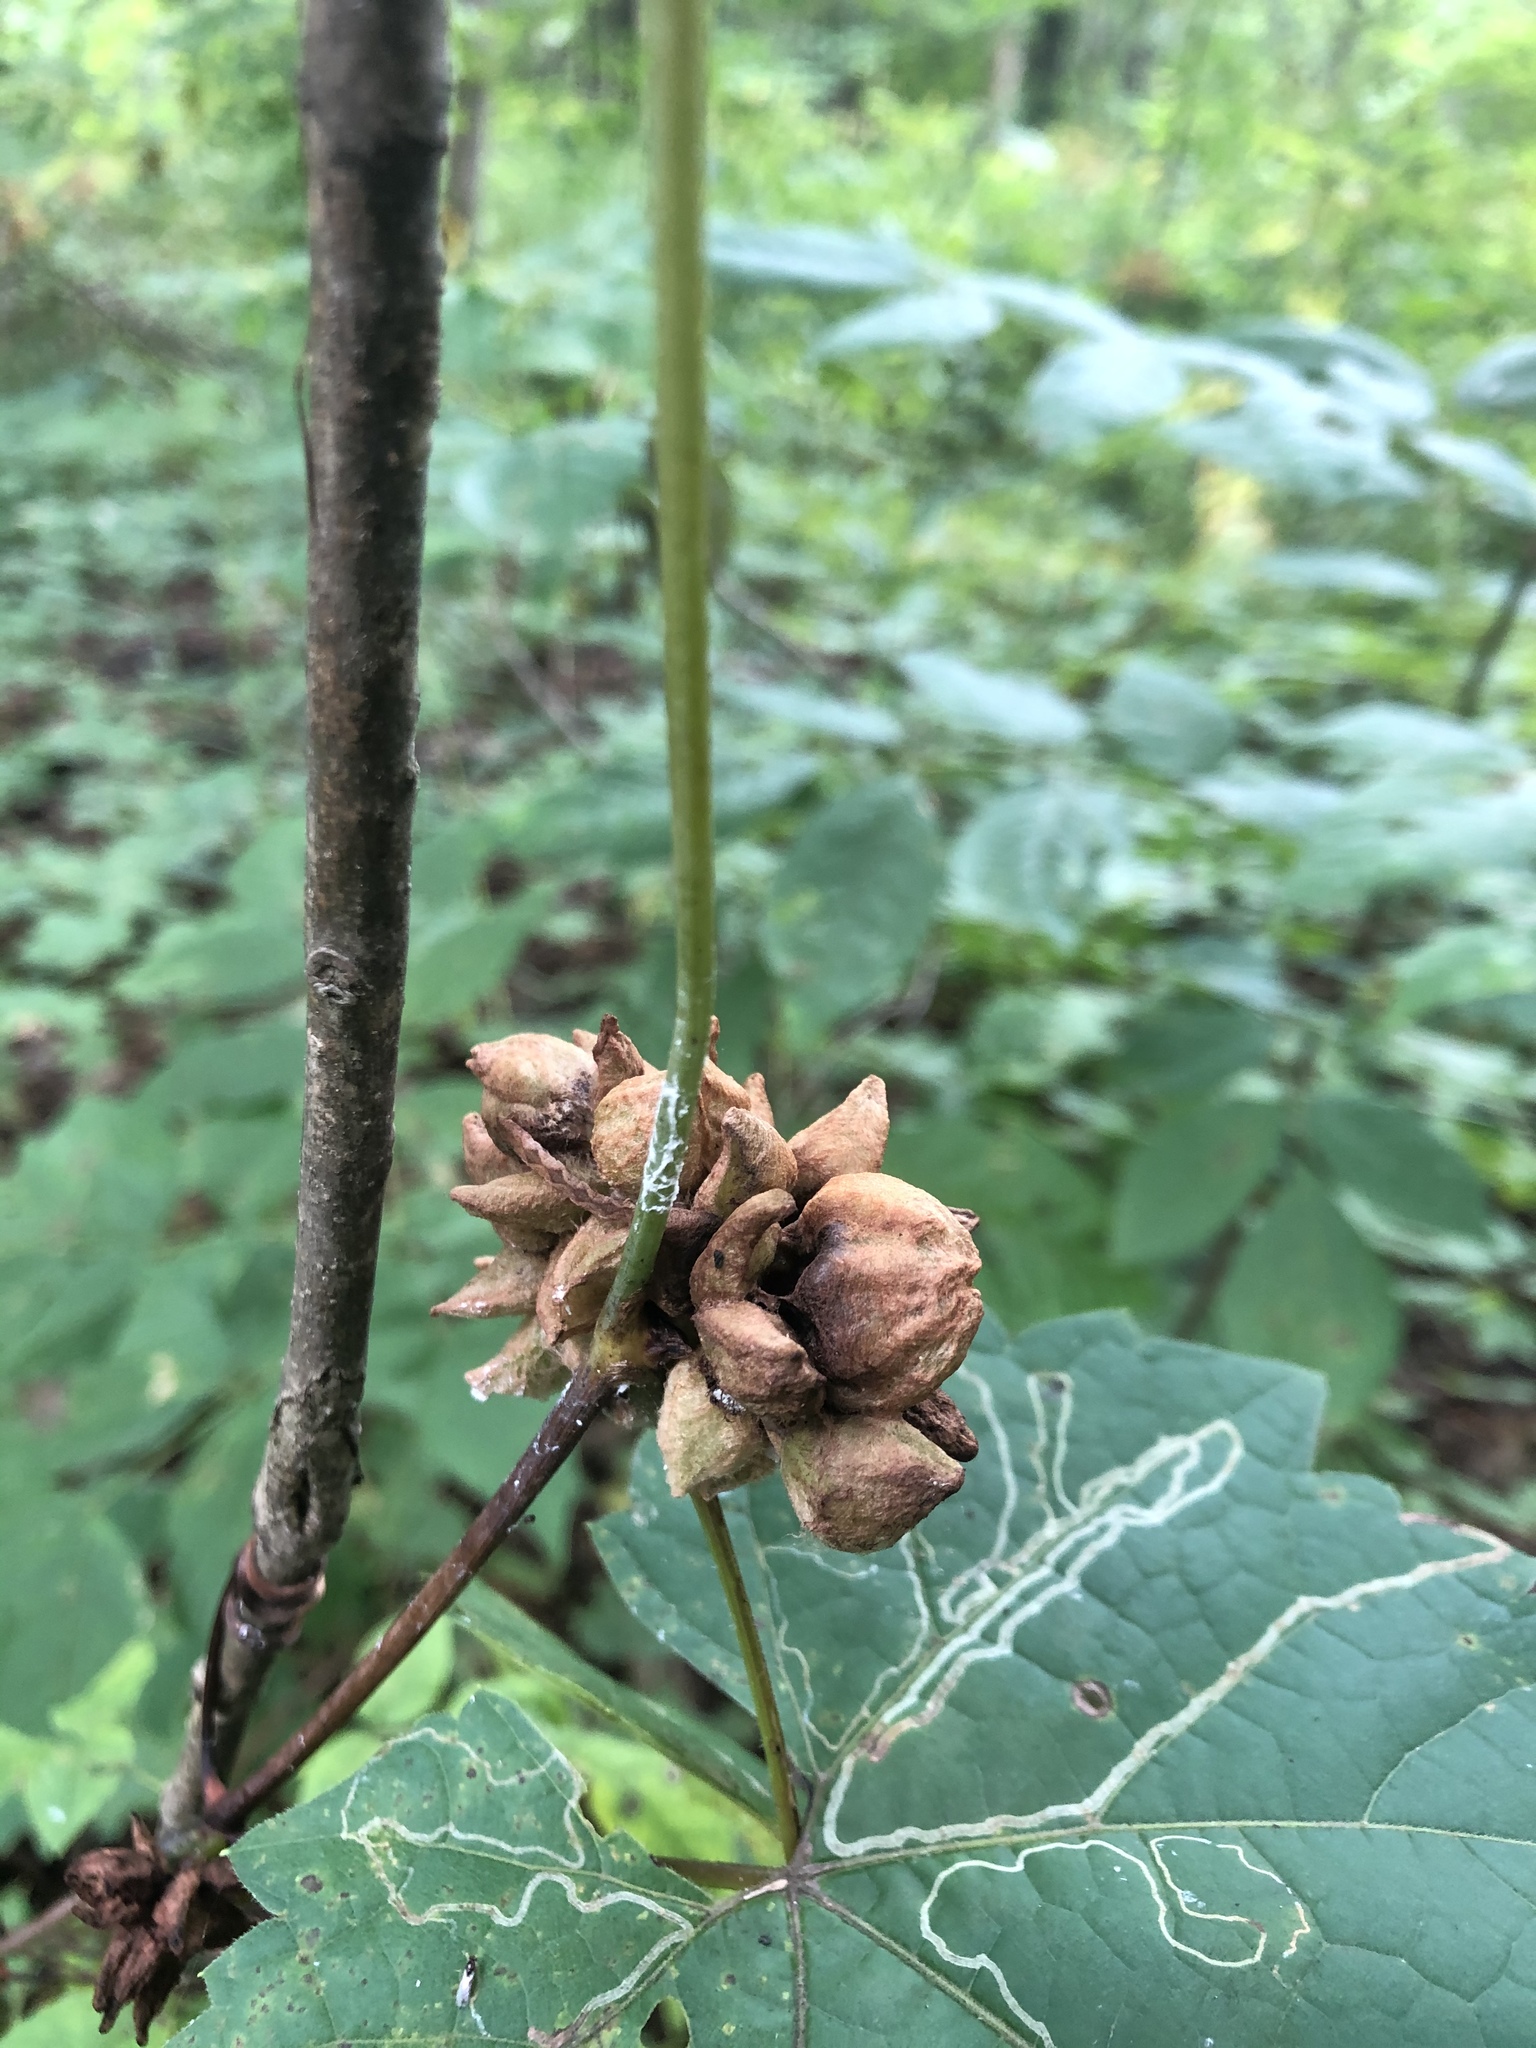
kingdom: Animalia
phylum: Arthropoda
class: Insecta
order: Diptera
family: Cecidomyiidae
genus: Ampelomyia
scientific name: Ampelomyia vitiscoryloides
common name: Grape filbert gall
